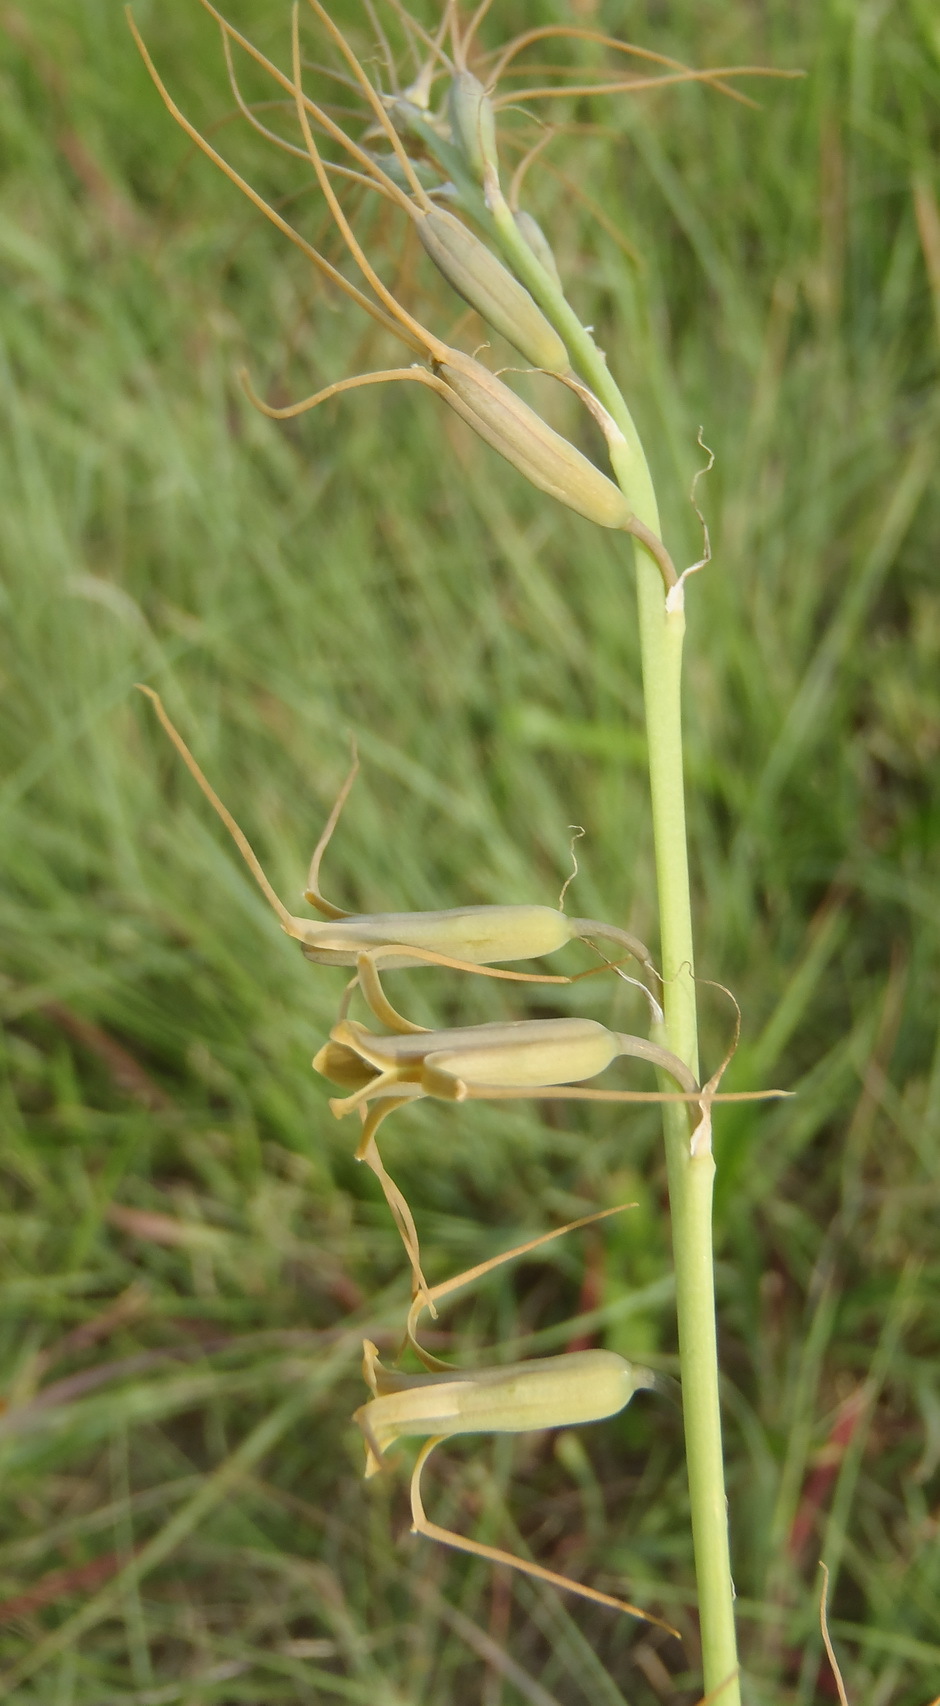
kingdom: Plantae
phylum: Tracheophyta
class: Liliopsida
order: Asparagales
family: Asparagaceae
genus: Dipcadi
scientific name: Dipcadi viride
